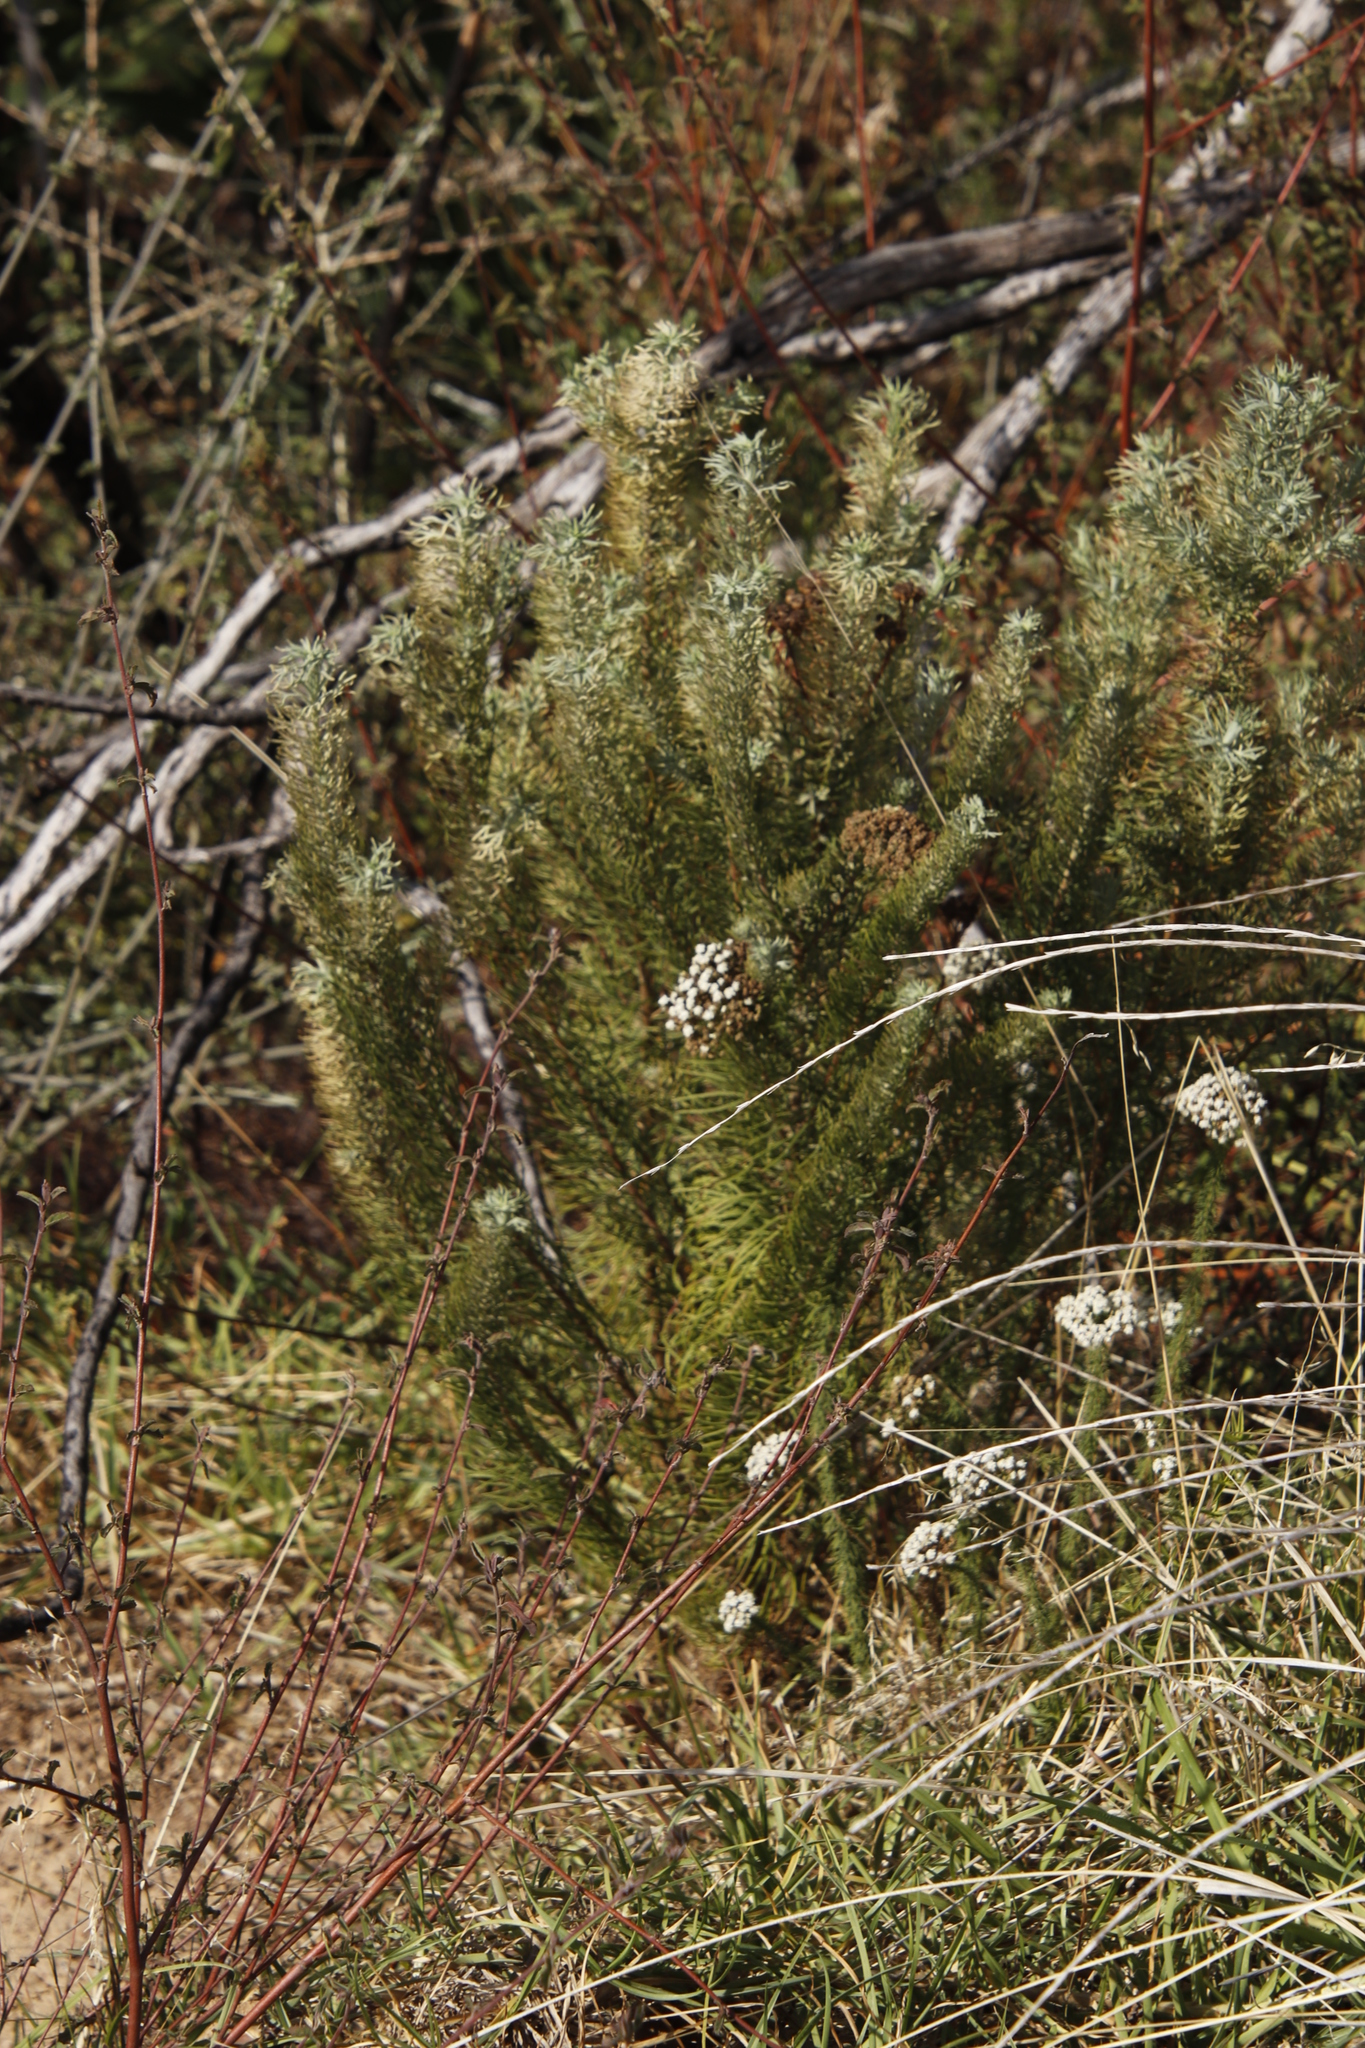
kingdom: Plantae
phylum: Tracheophyta
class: Magnoliopsida
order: Asterales
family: Asteraceae
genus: Athanasia
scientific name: Athanasia crithmifolia
